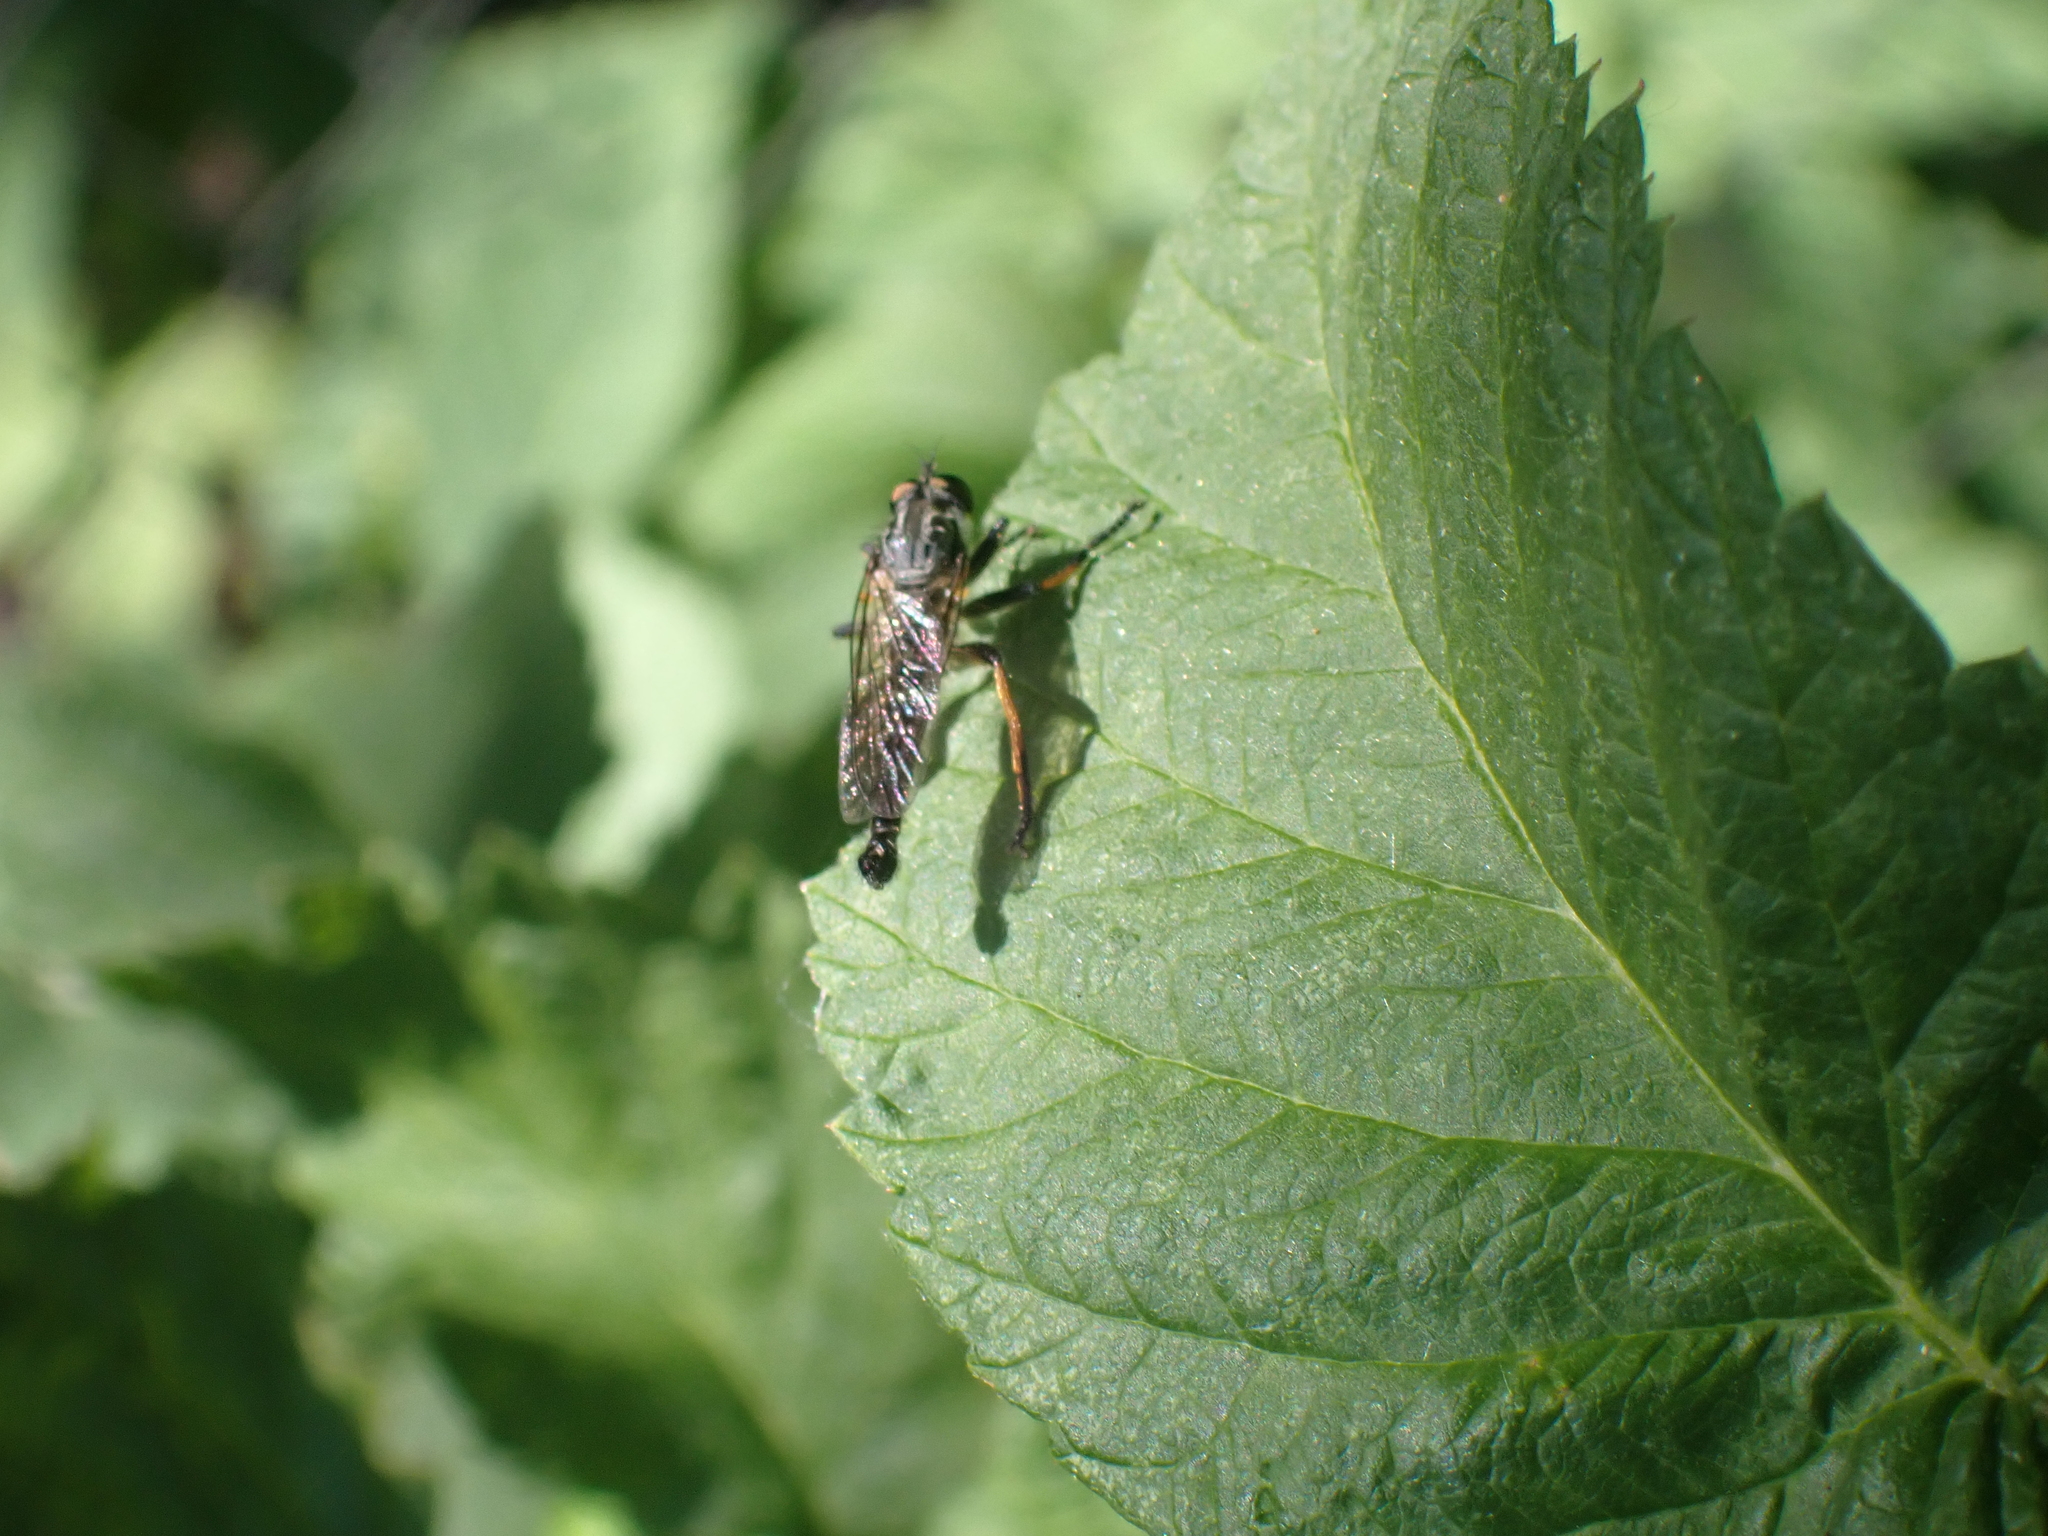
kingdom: Animalia
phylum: Arthropoda
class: Insecta
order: Diptera
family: Asilidae
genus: Neoitamus
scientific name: Neoitamus
